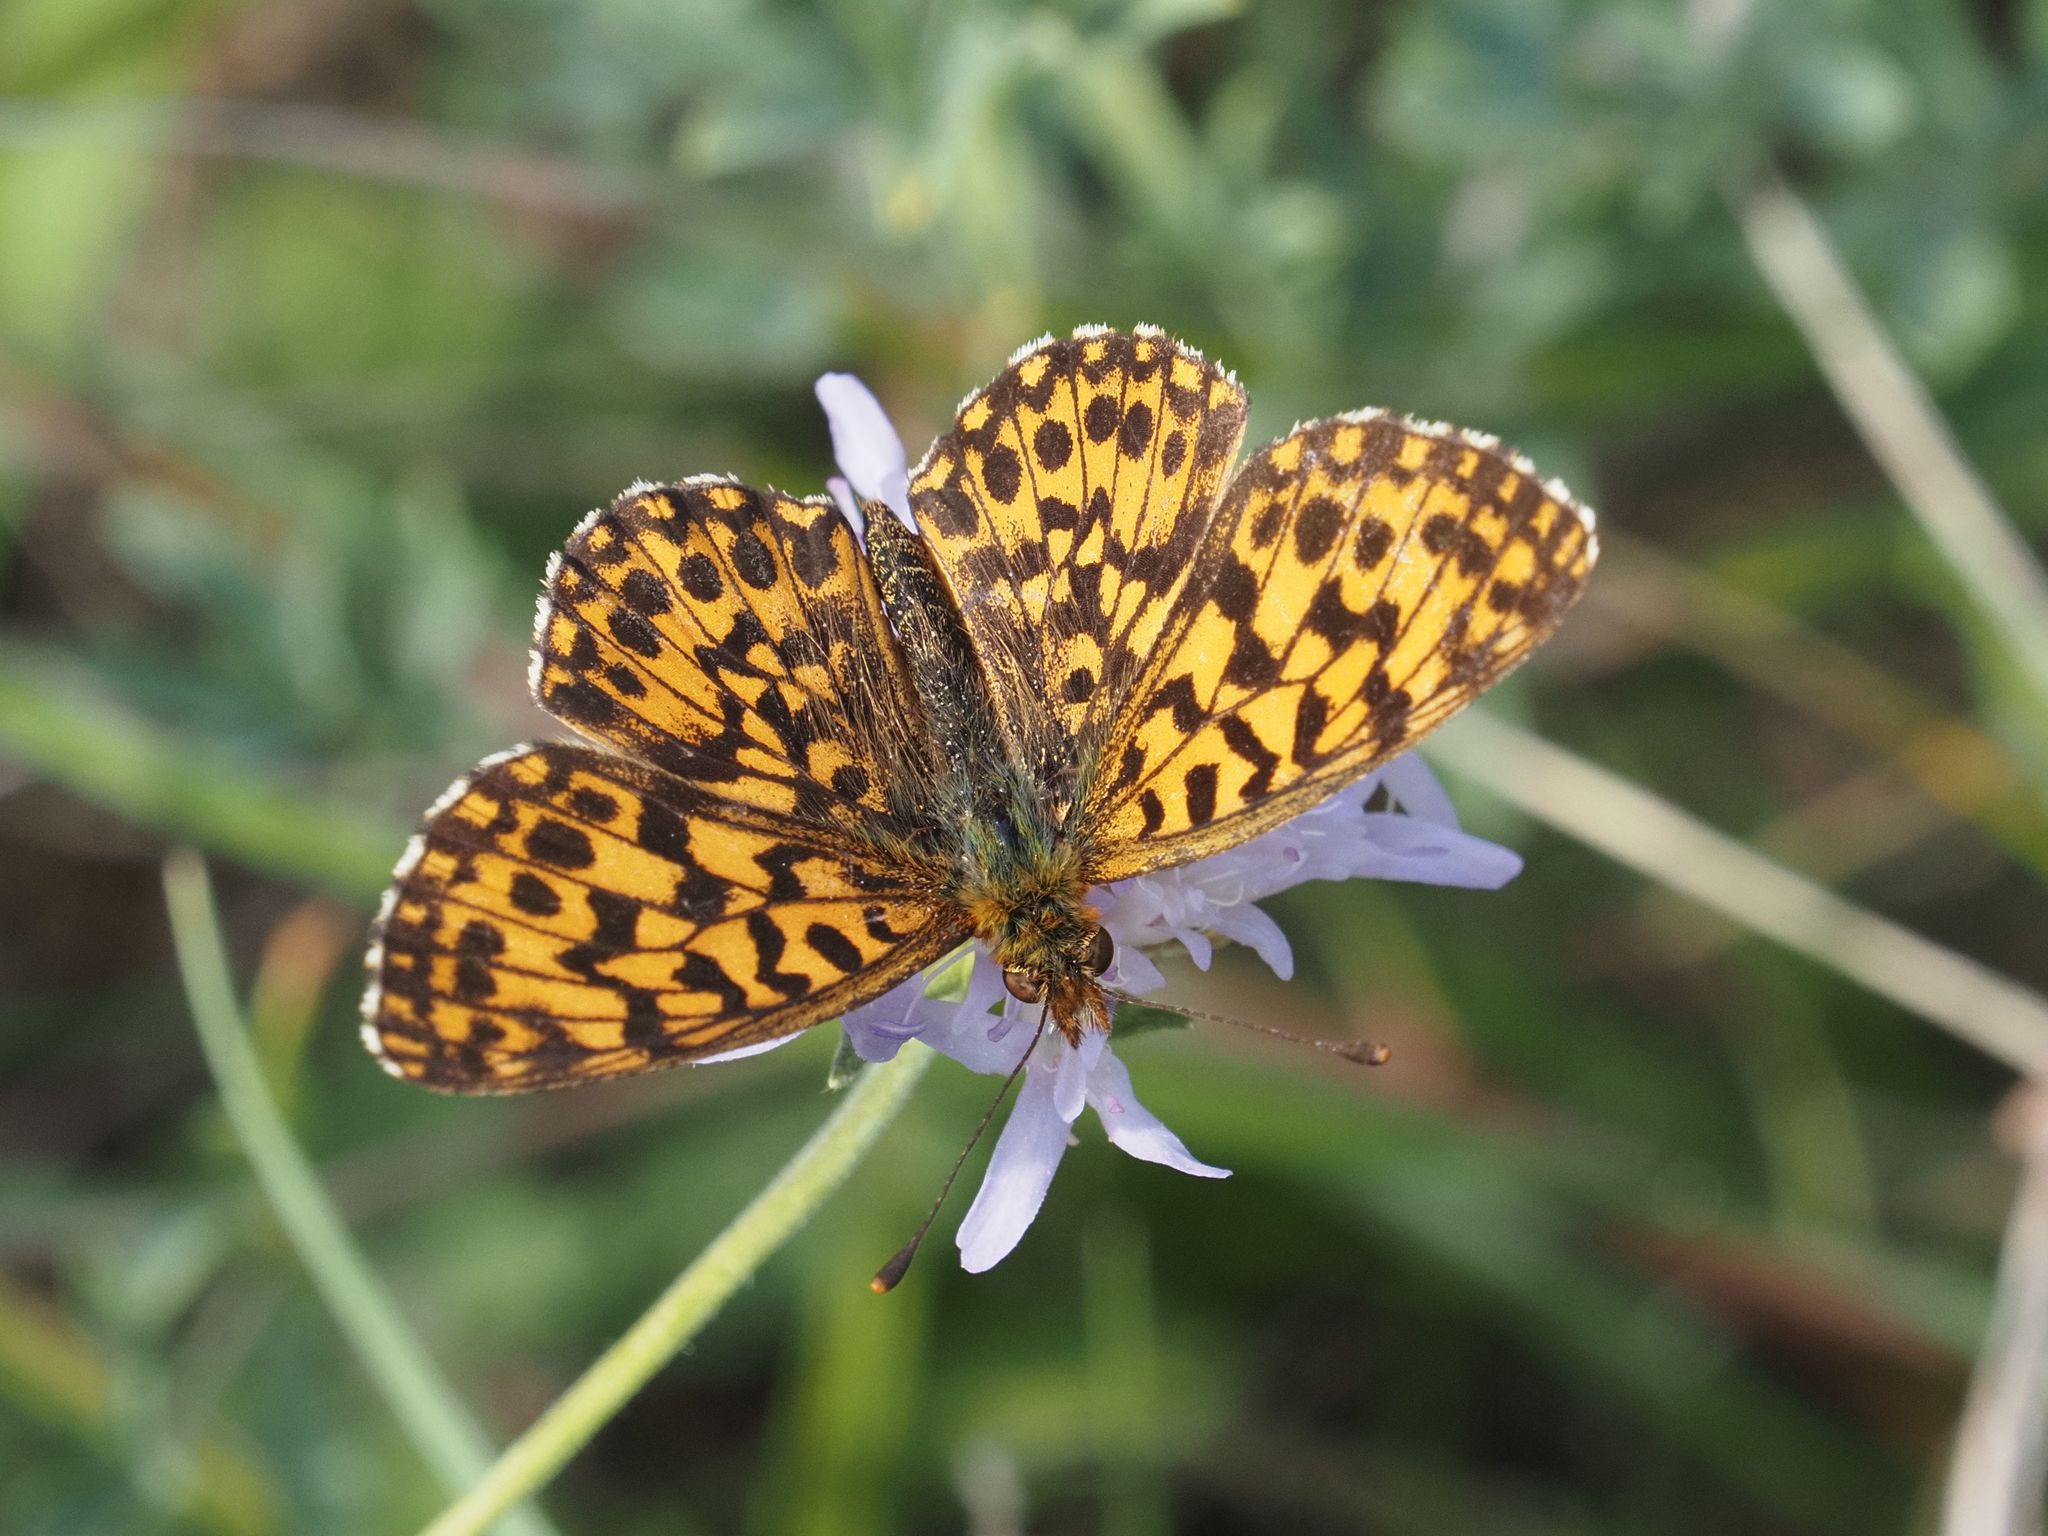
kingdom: Animalia
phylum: Arthropoda
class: Insecta
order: Lepidoptera
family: Nymphalidae
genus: Boloria
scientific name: Boloria dia
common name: Weaver's fritillary
